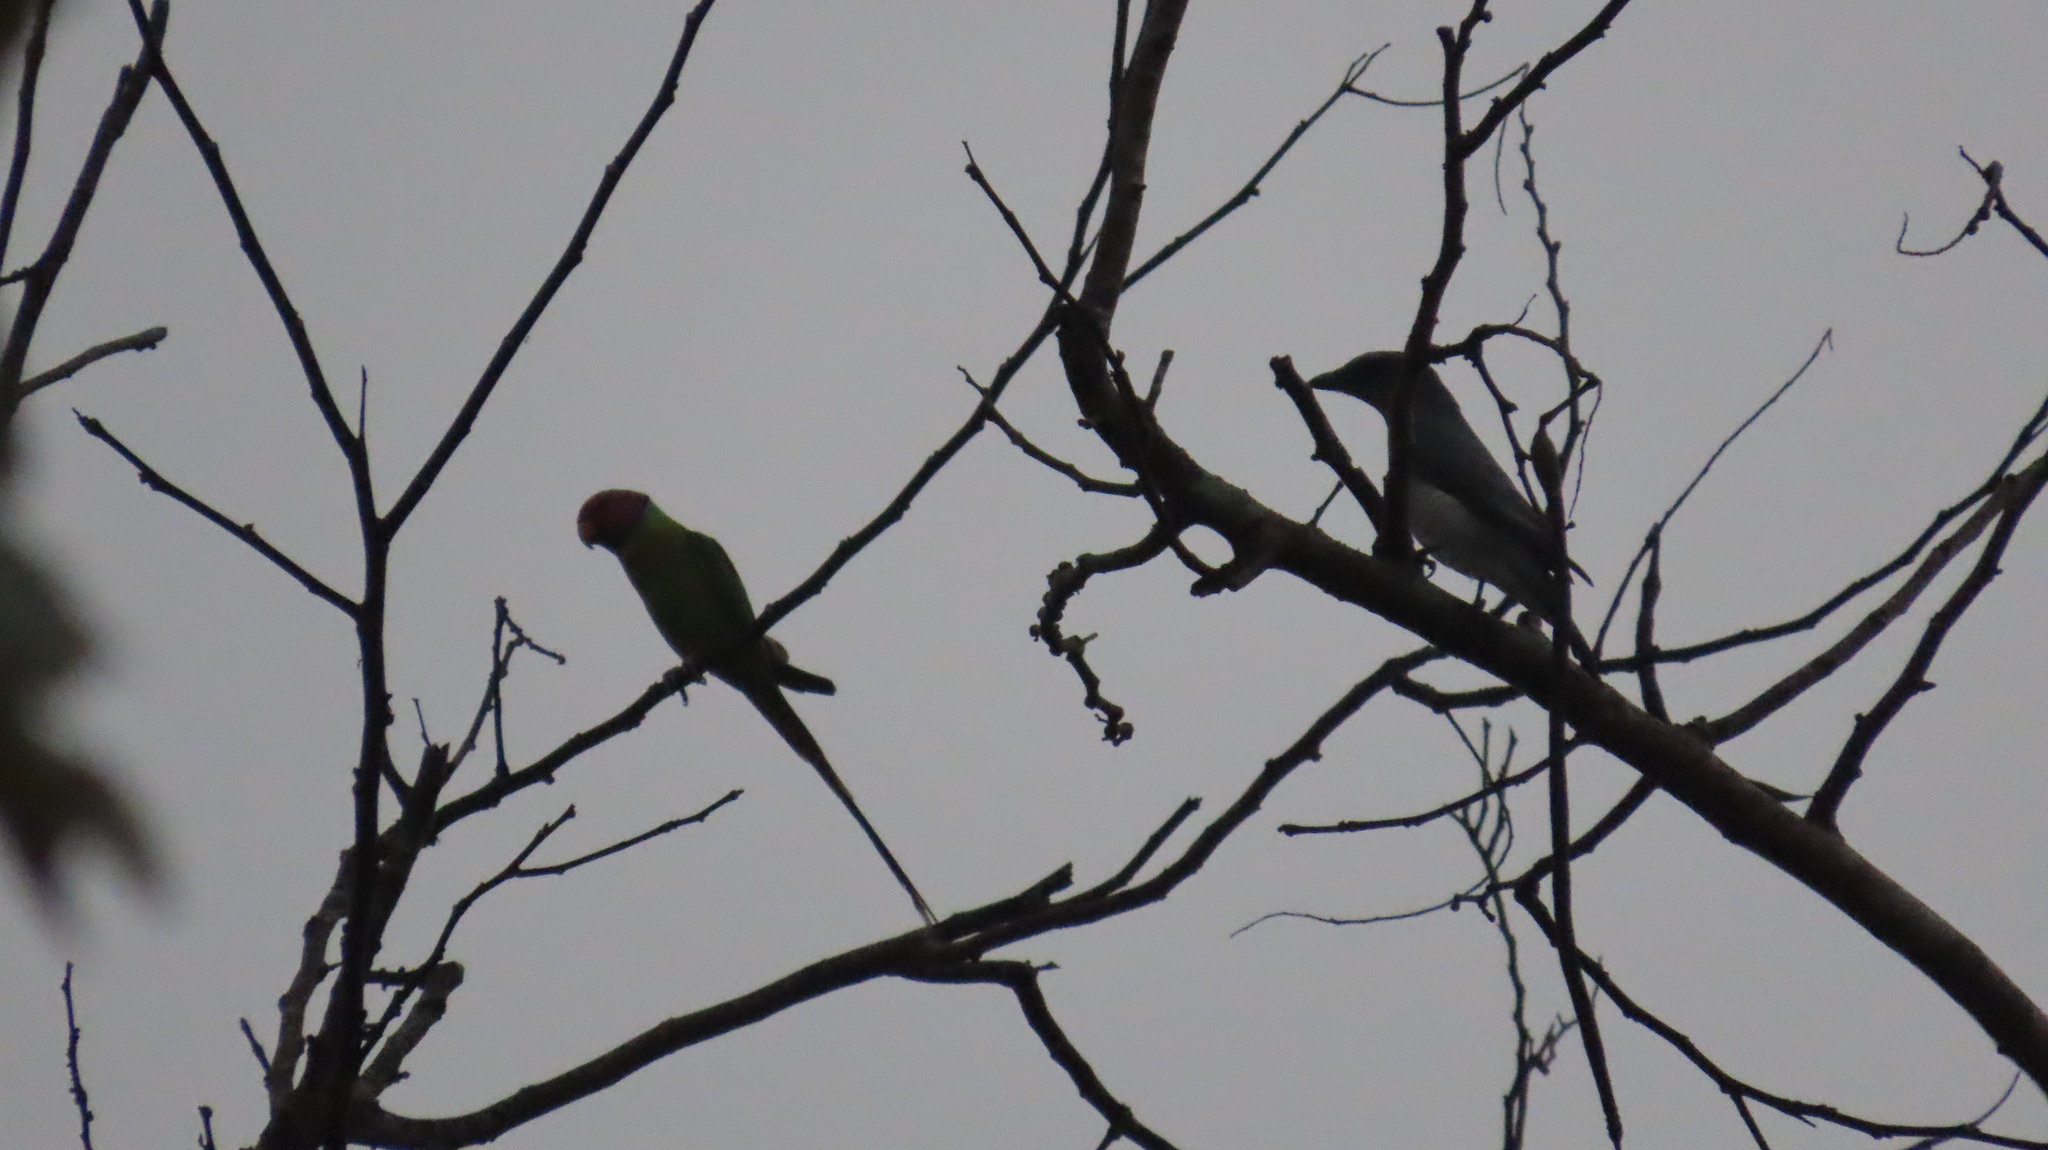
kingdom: Animalia
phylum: Chordata
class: Aves
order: Psittaciformes
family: Psittacidae
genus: Psittacula
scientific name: Psittacula cyanocephala
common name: Plum-headed parakeet
